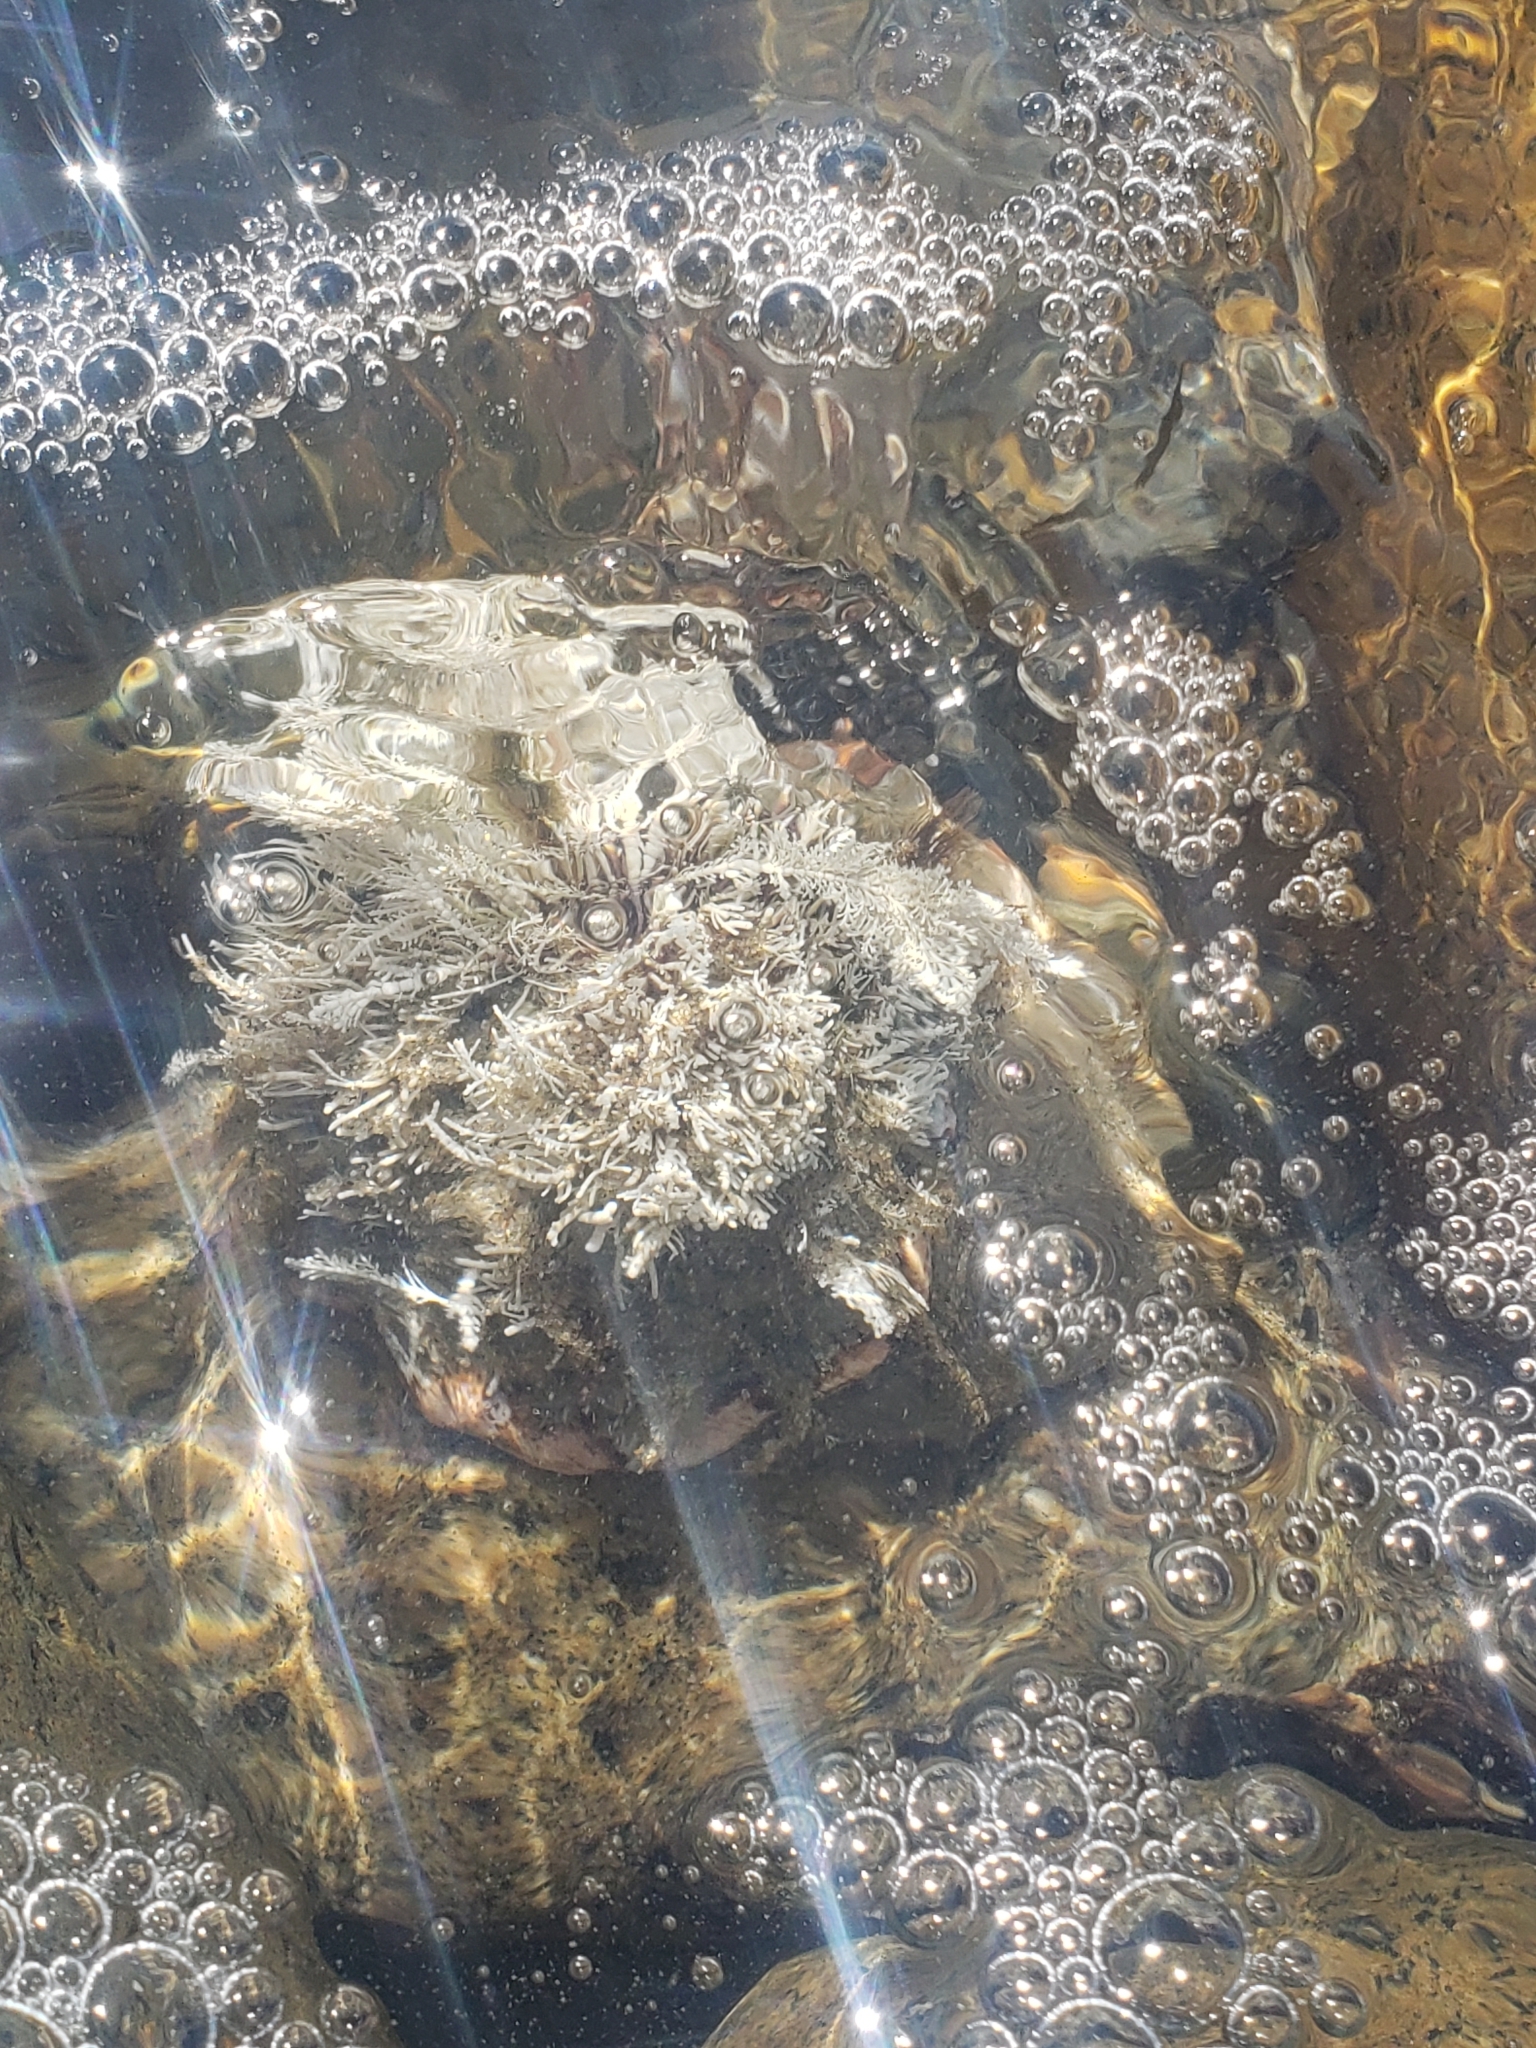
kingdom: Animalia
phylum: Mollusca
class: Gastropoda
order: Trochida
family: Turbinidae
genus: Megastraea
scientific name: Megastraea undosa
